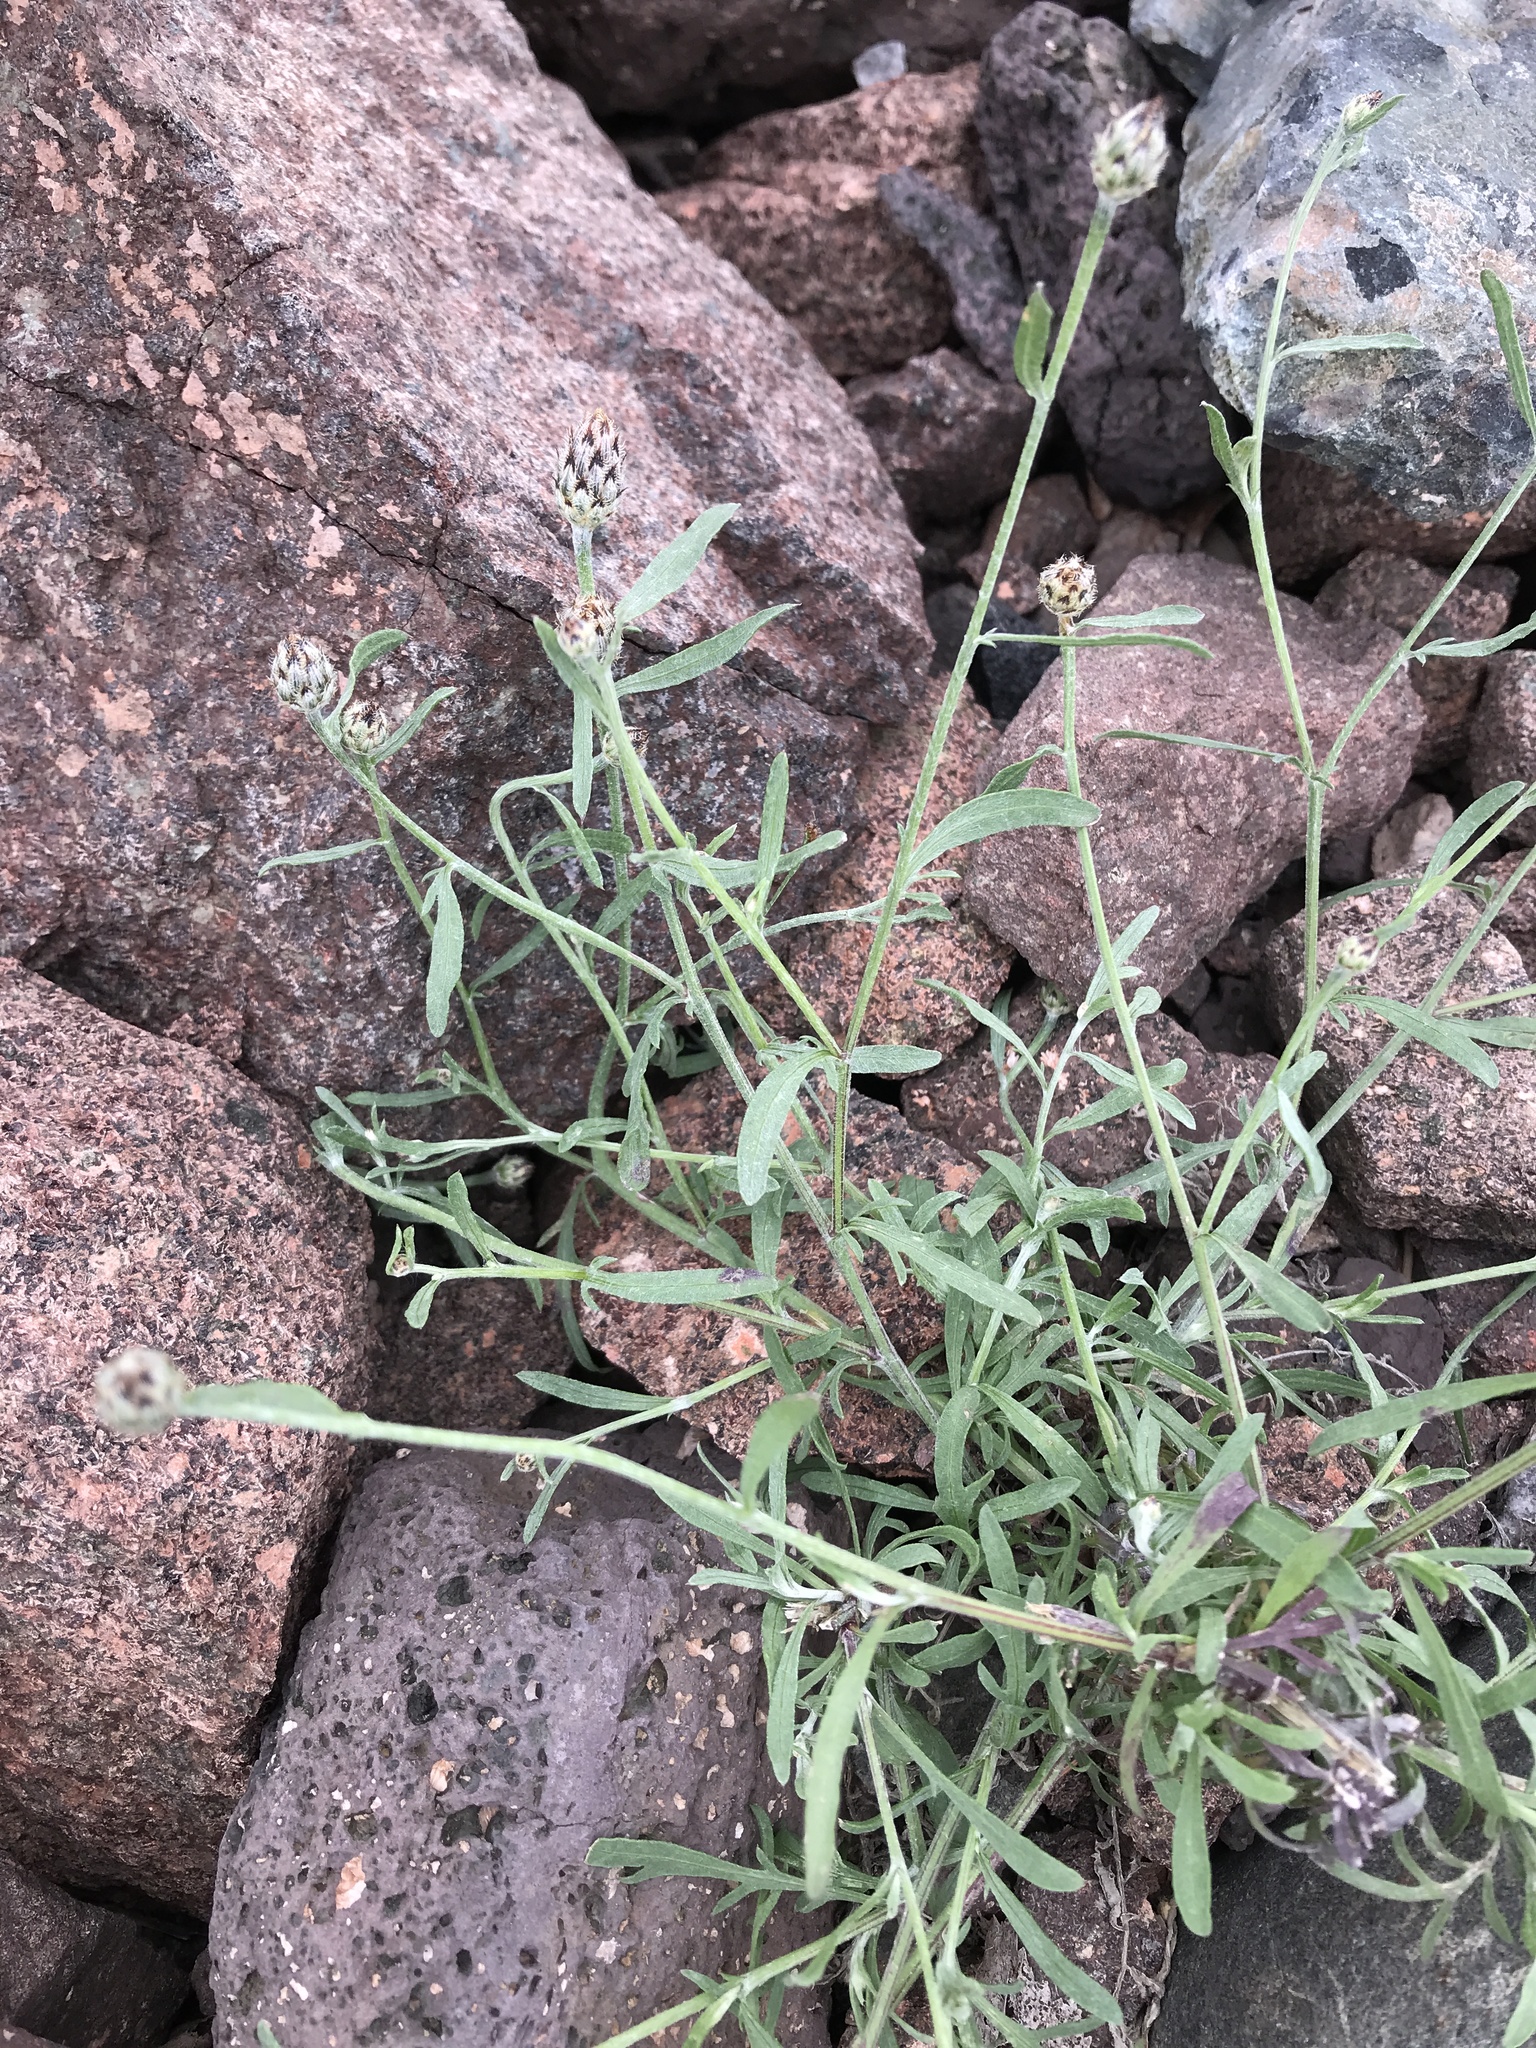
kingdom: Plantae
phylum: Tracheophyta
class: Magnoliopsida
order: Asterales
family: Asteraceae
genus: Centaurea
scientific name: Centaurea stoebe
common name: Spotted knapweed
